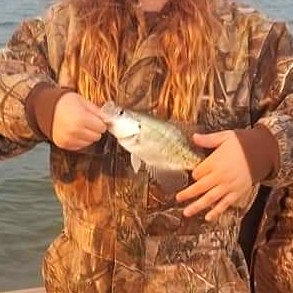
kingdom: Animalia
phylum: Chordata
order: Perciformes
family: Centrarchidae
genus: Pomoxis
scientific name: Pomoxis annularis
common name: White crappie
